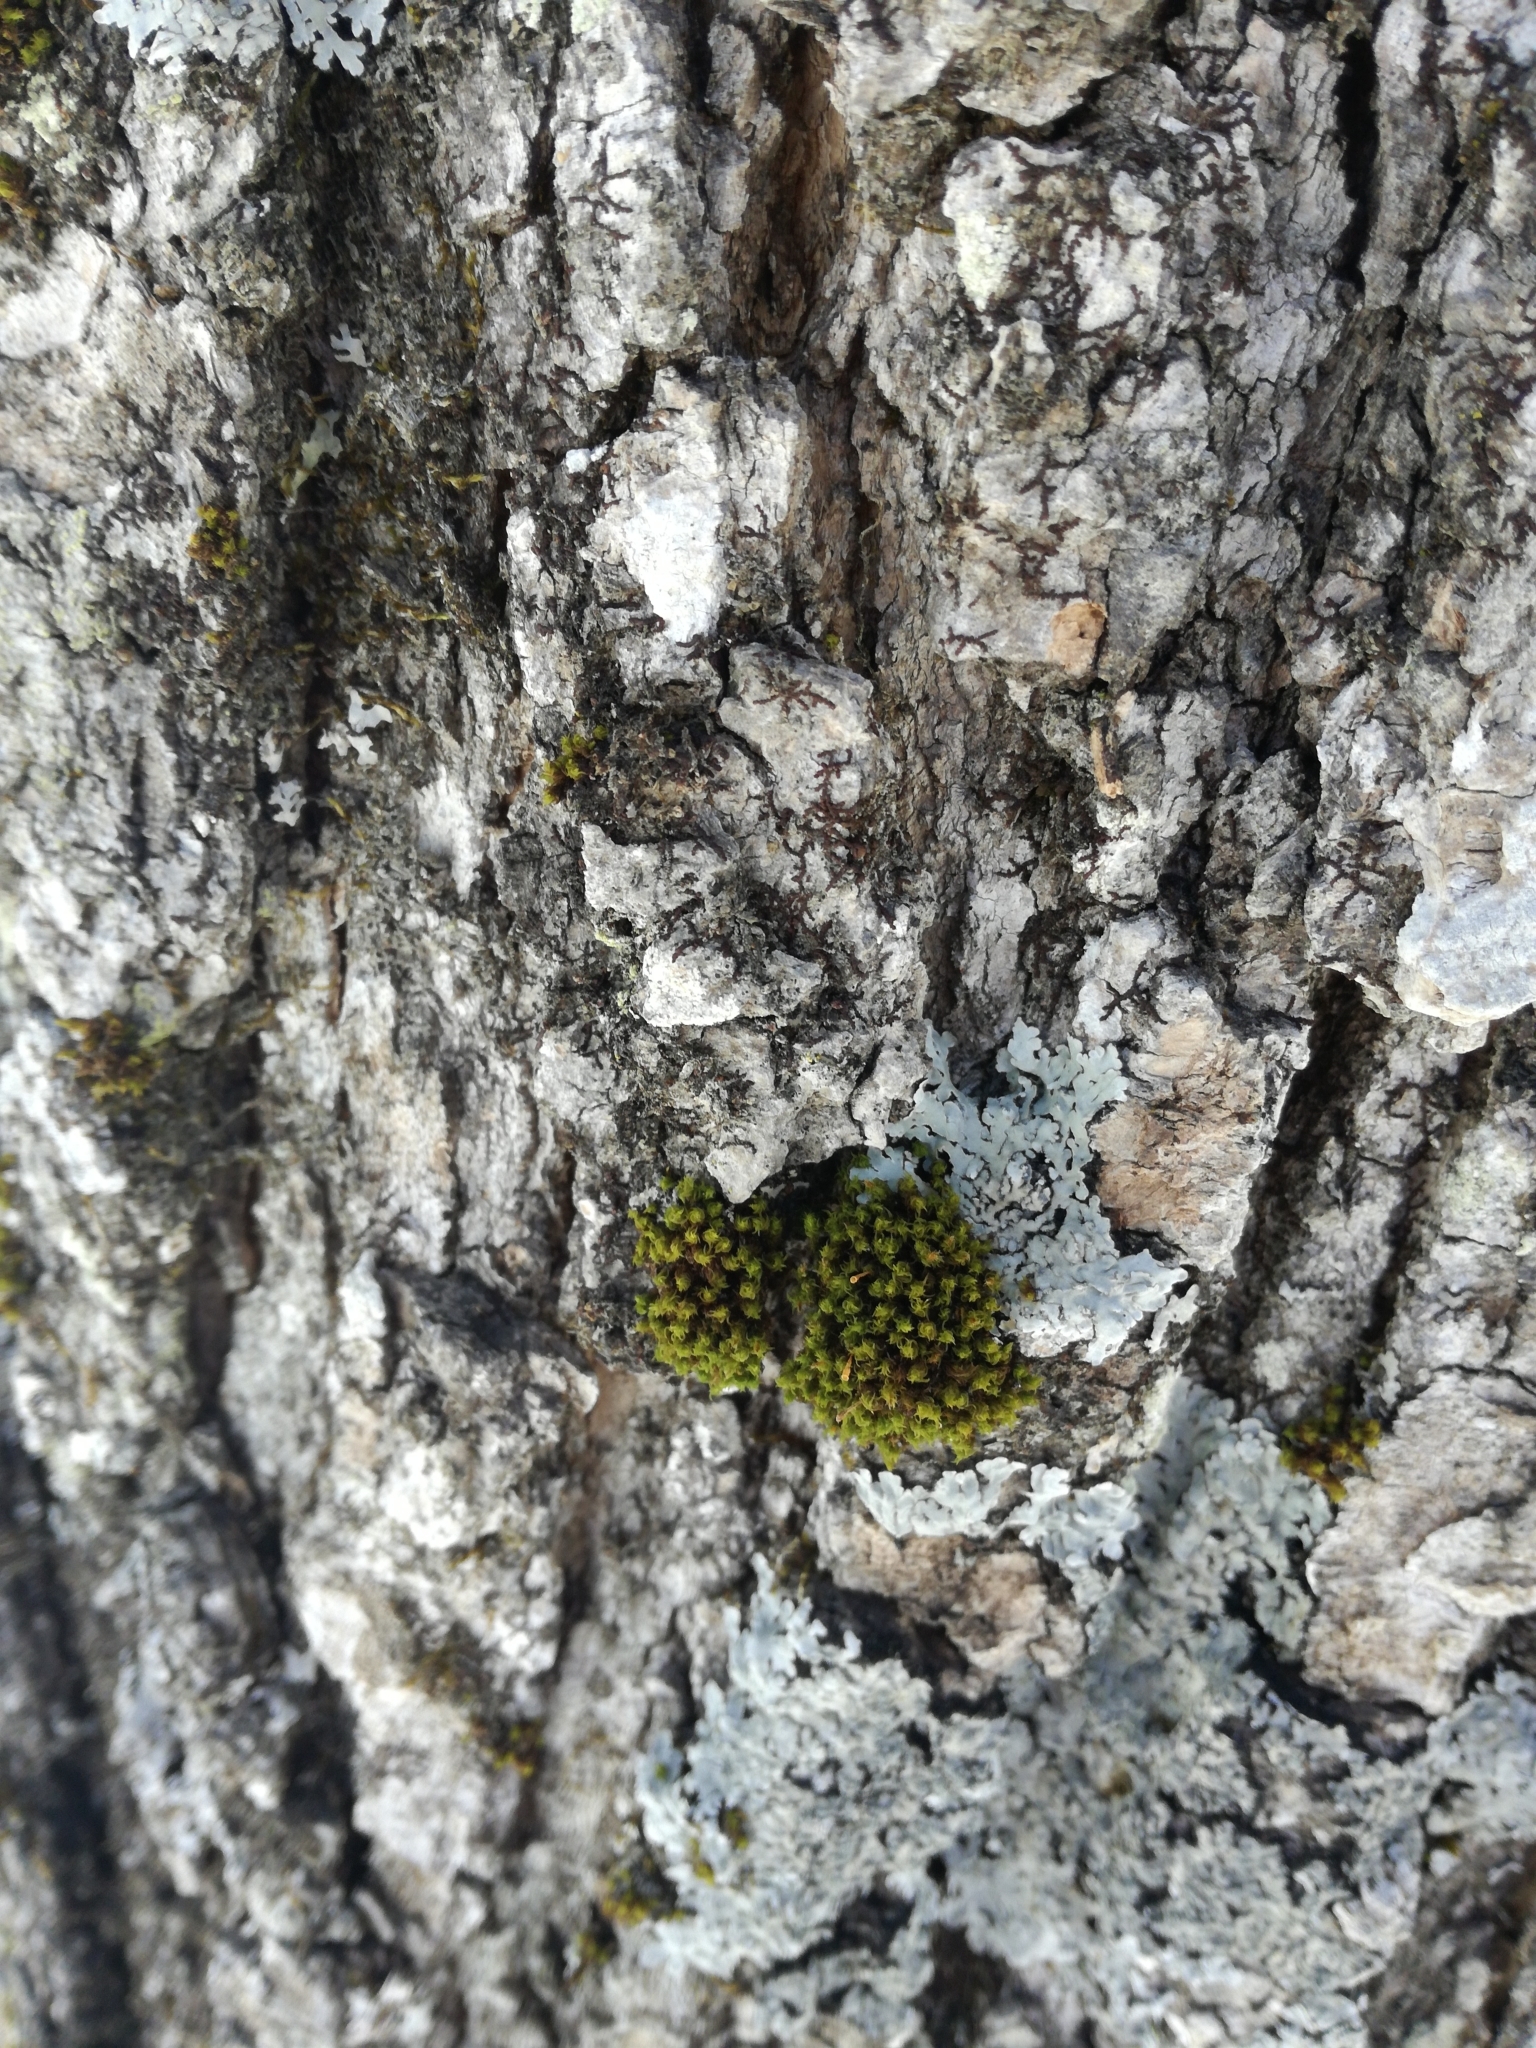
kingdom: Plantae
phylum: Bryophyta
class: Bryopsida
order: Orthotrichales
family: Orthotrichaceae
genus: Ulota
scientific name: Ulota crispa
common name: Crisped pincushion moss
